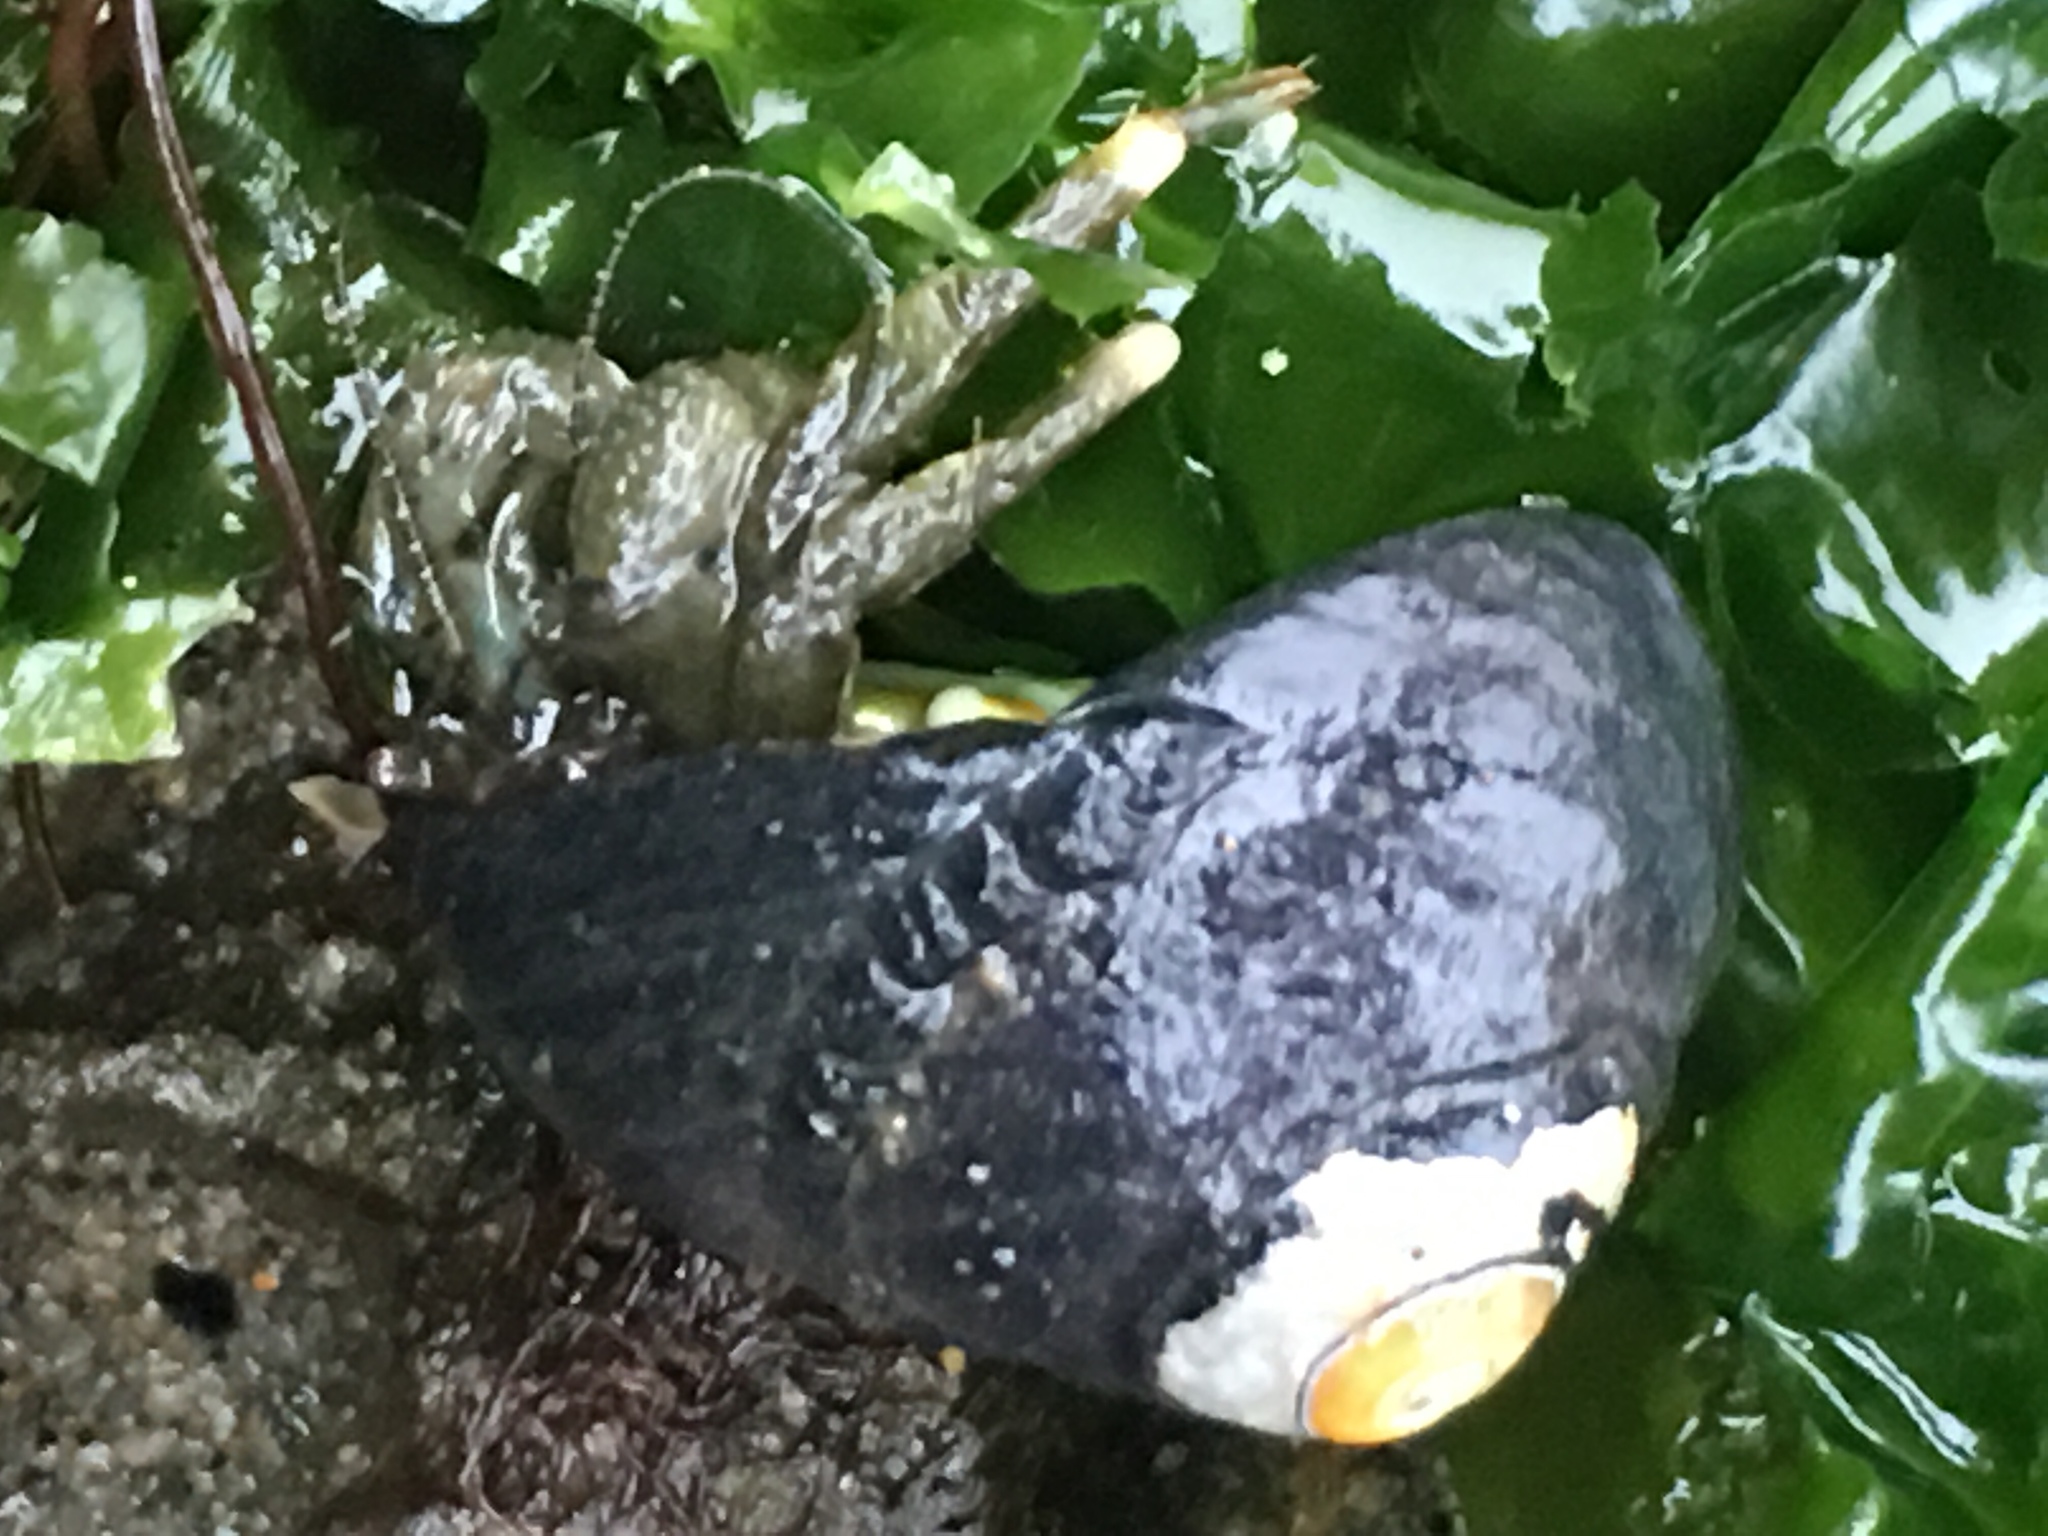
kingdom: Animalia
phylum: Arthropoda
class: Malacostraca
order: Decapoda
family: Paguridae
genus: Pagurus
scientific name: Pagurus hirsutiusculus
